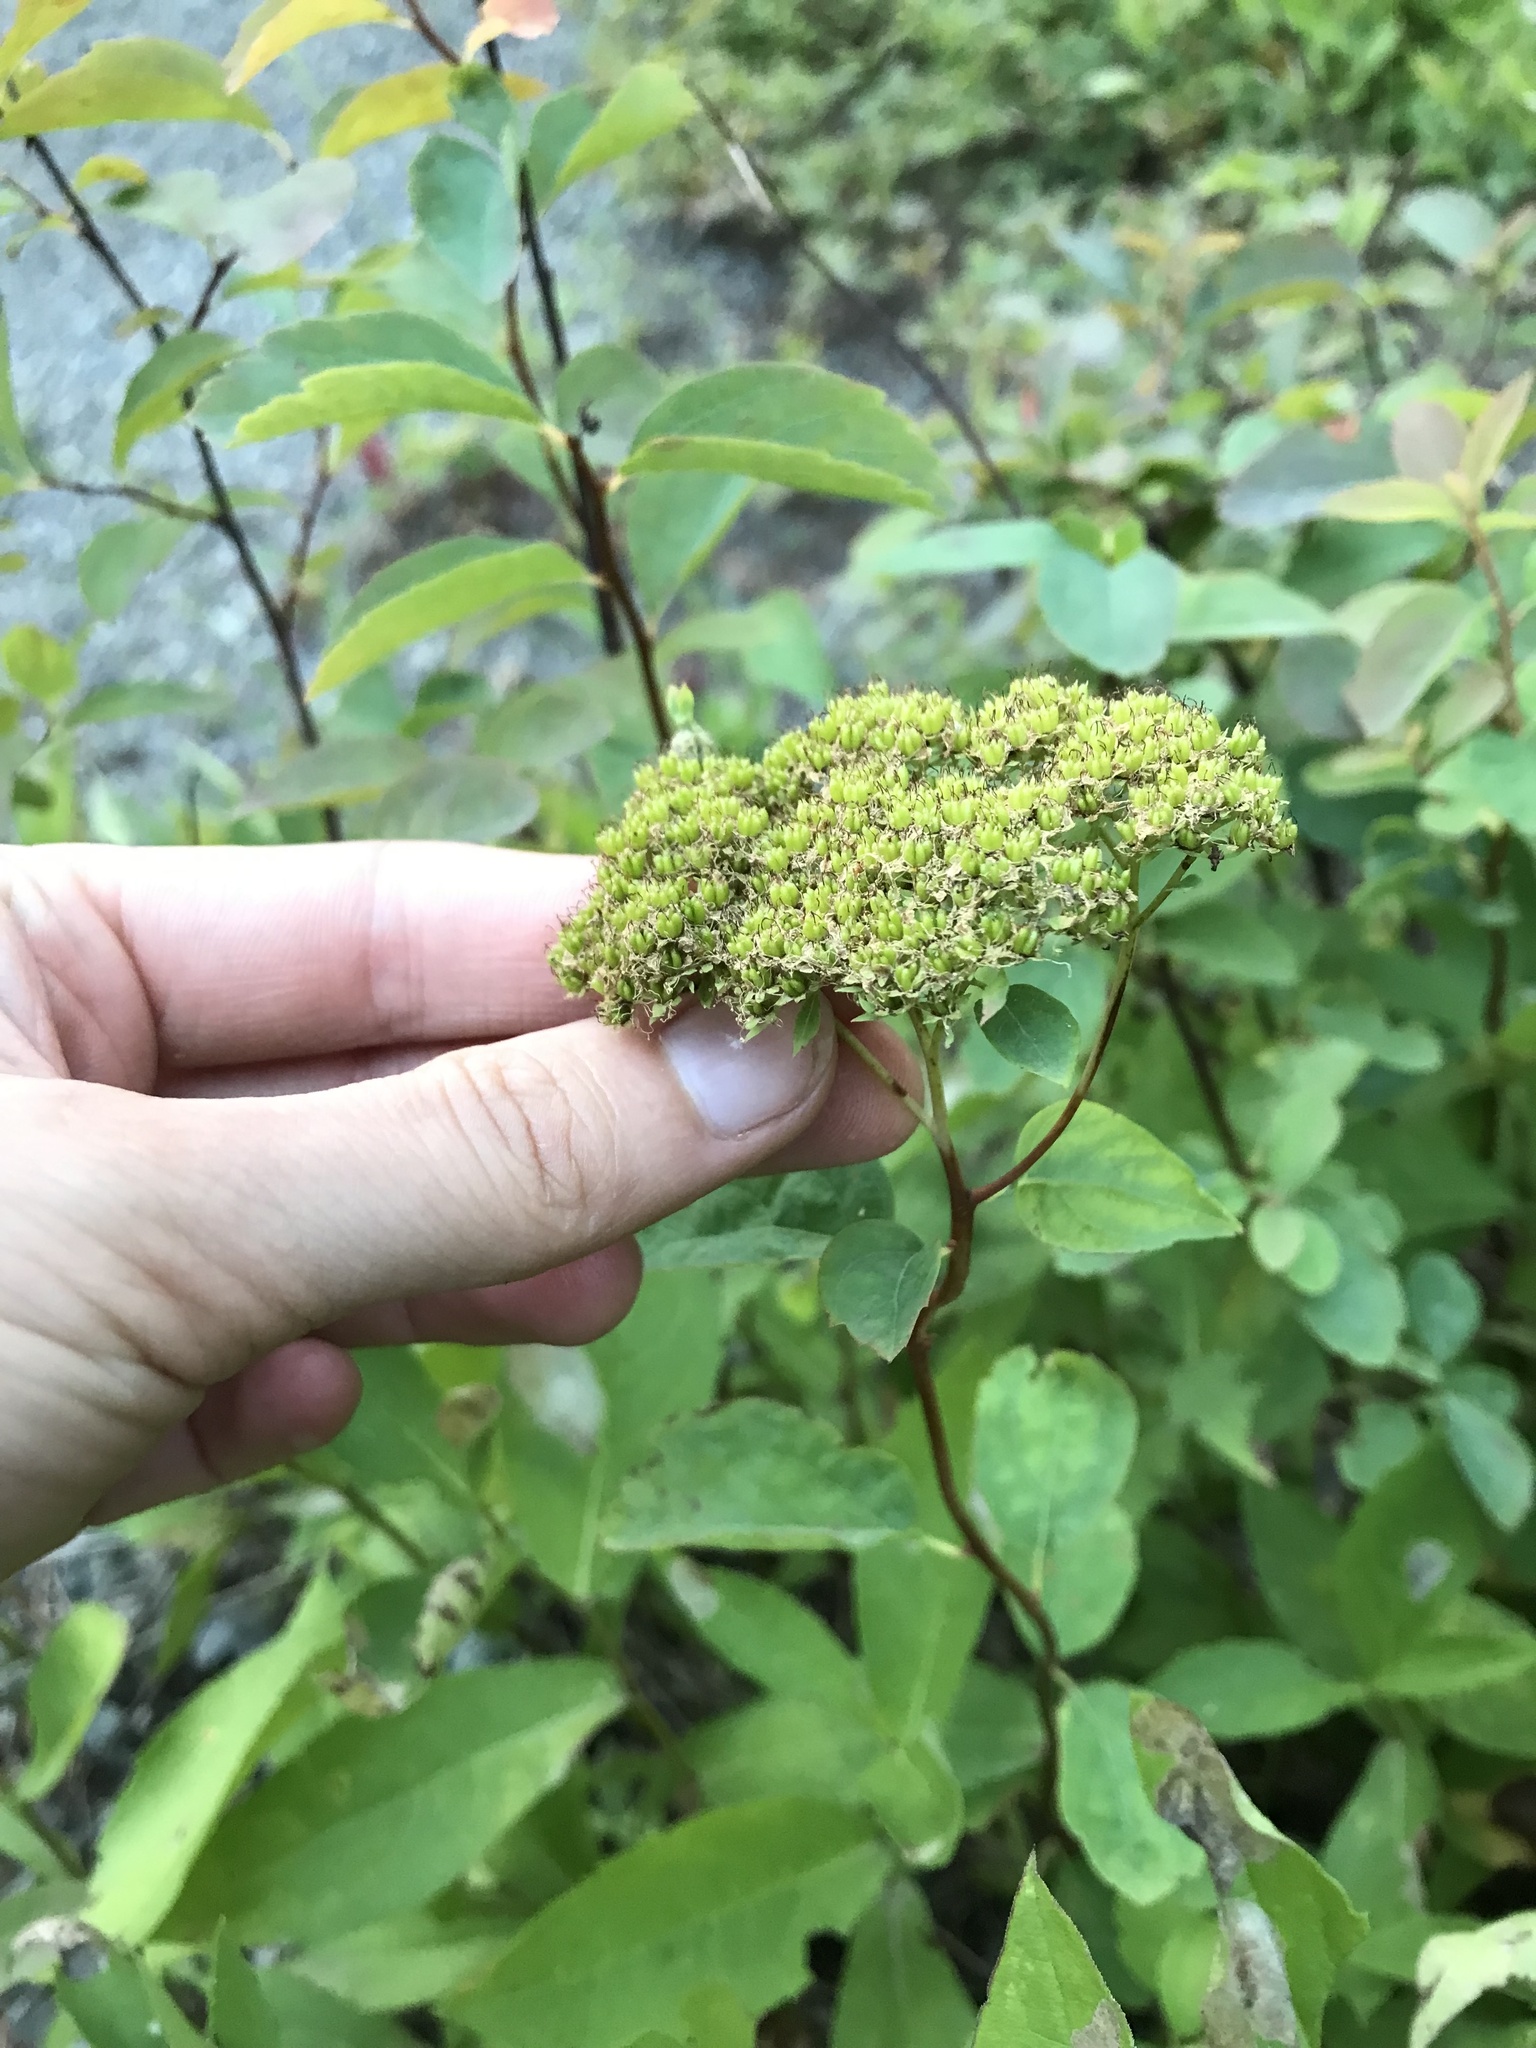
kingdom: Plantae
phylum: Tracheophyta
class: Magnoliopsida
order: Rosales
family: Rosaceae
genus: Spiraea
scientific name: Spiraea lucida
